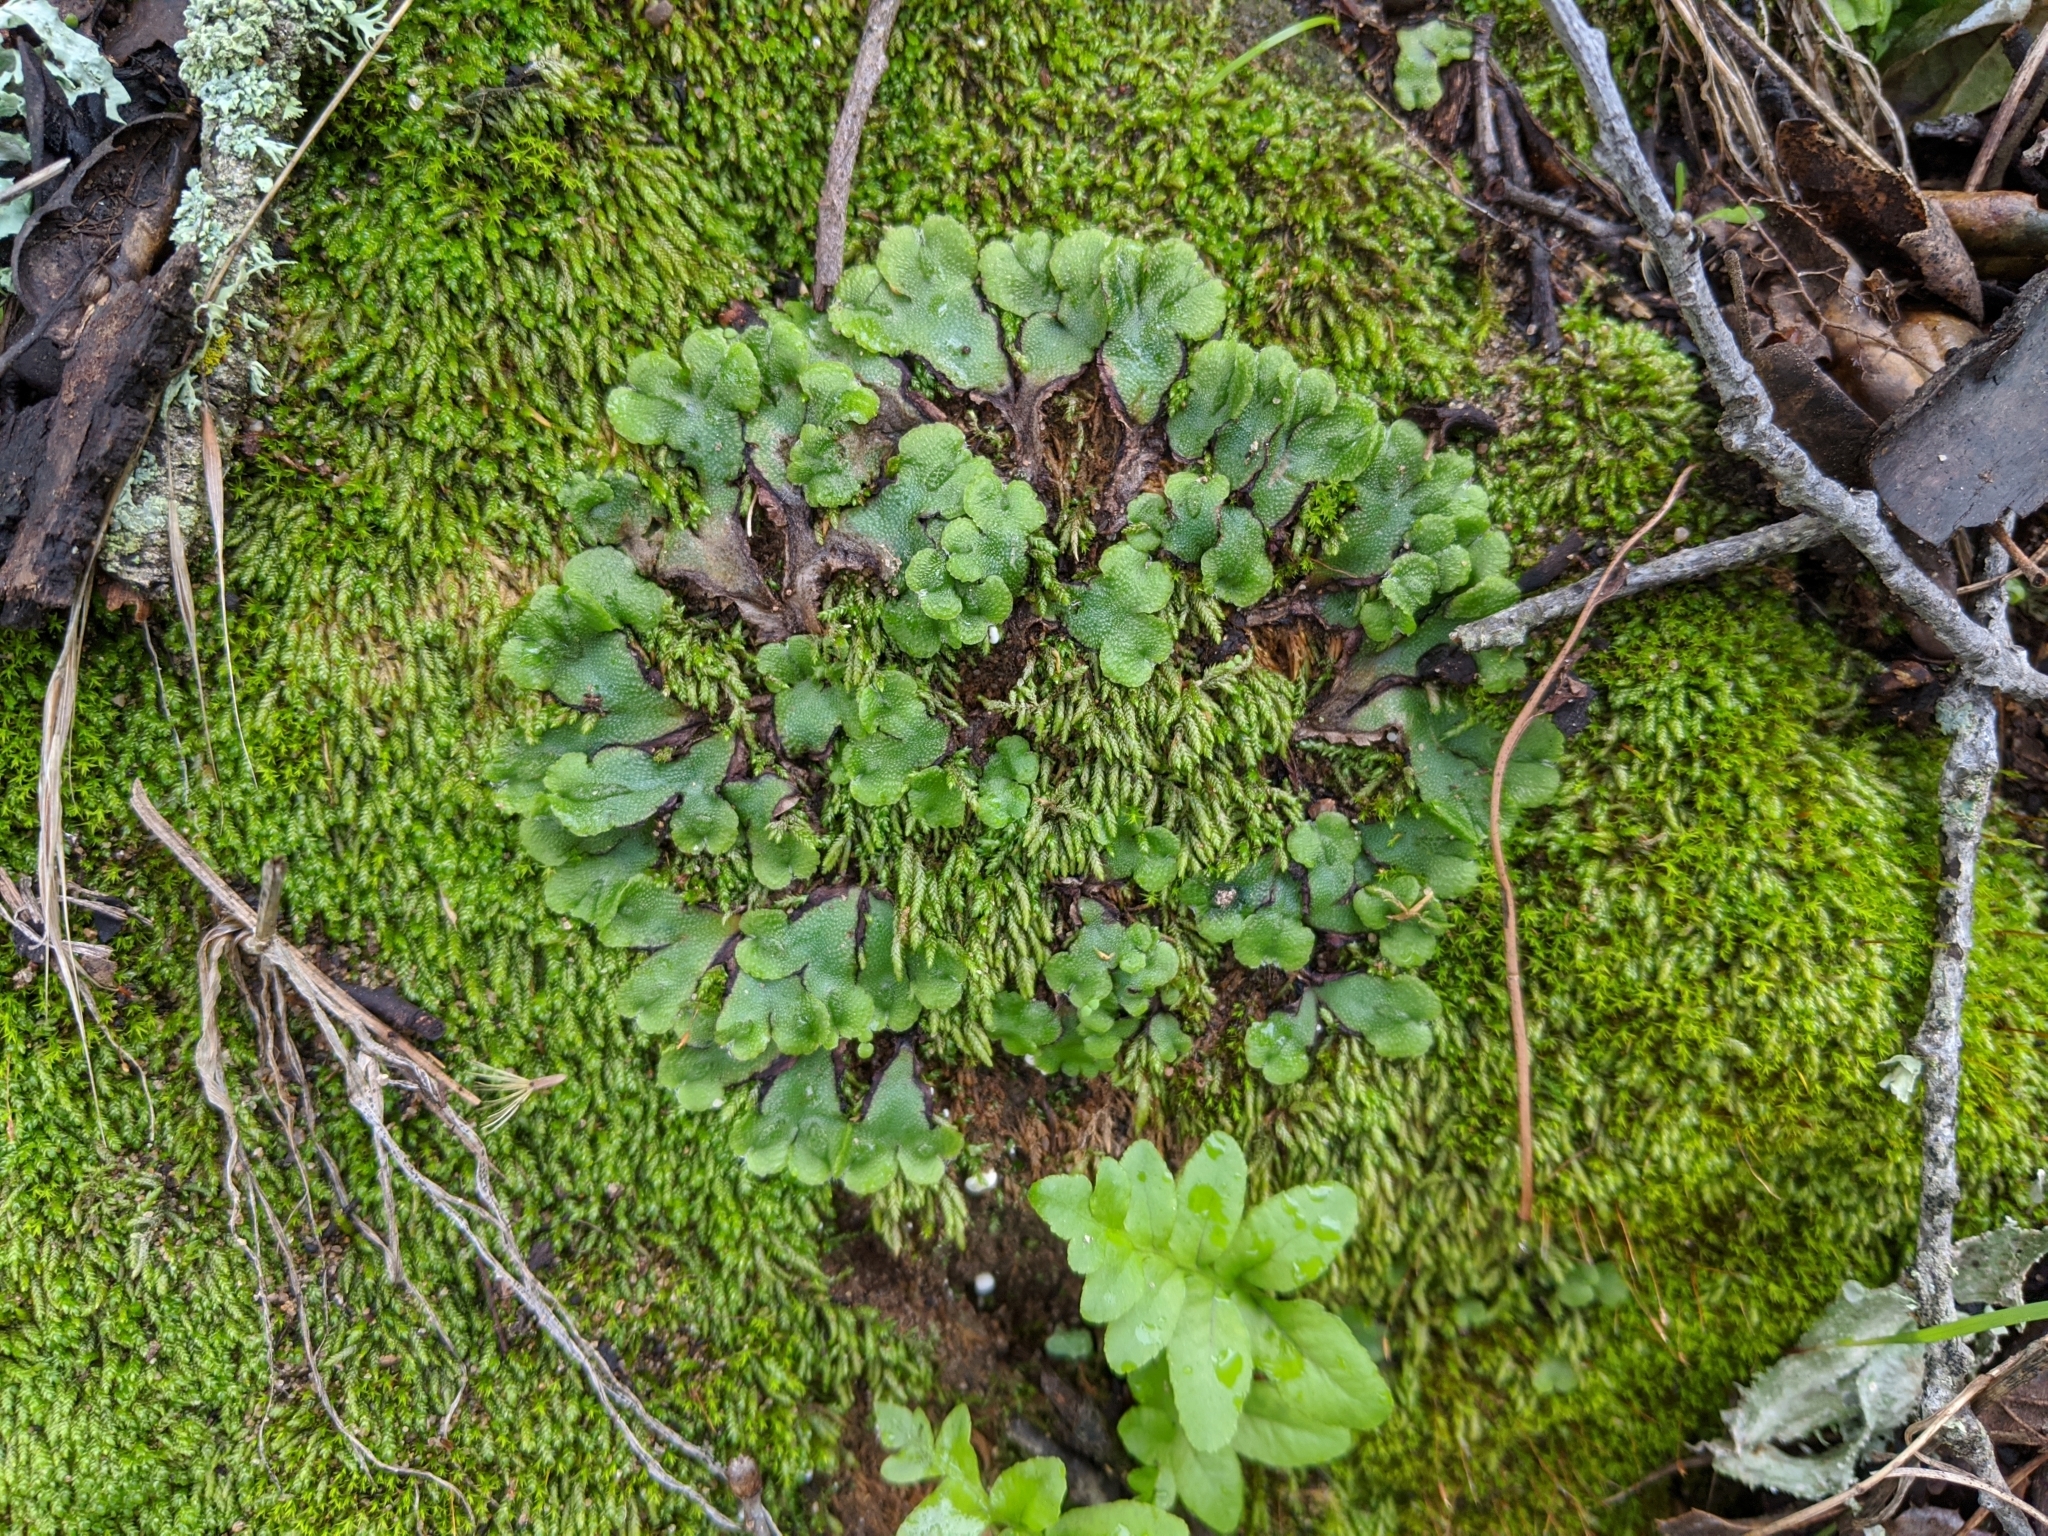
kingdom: Plantae
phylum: Marchantiophyta
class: Marchantiopsida
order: Marchantiales
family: Aytoniaceae
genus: Asterella
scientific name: Asterella californica
